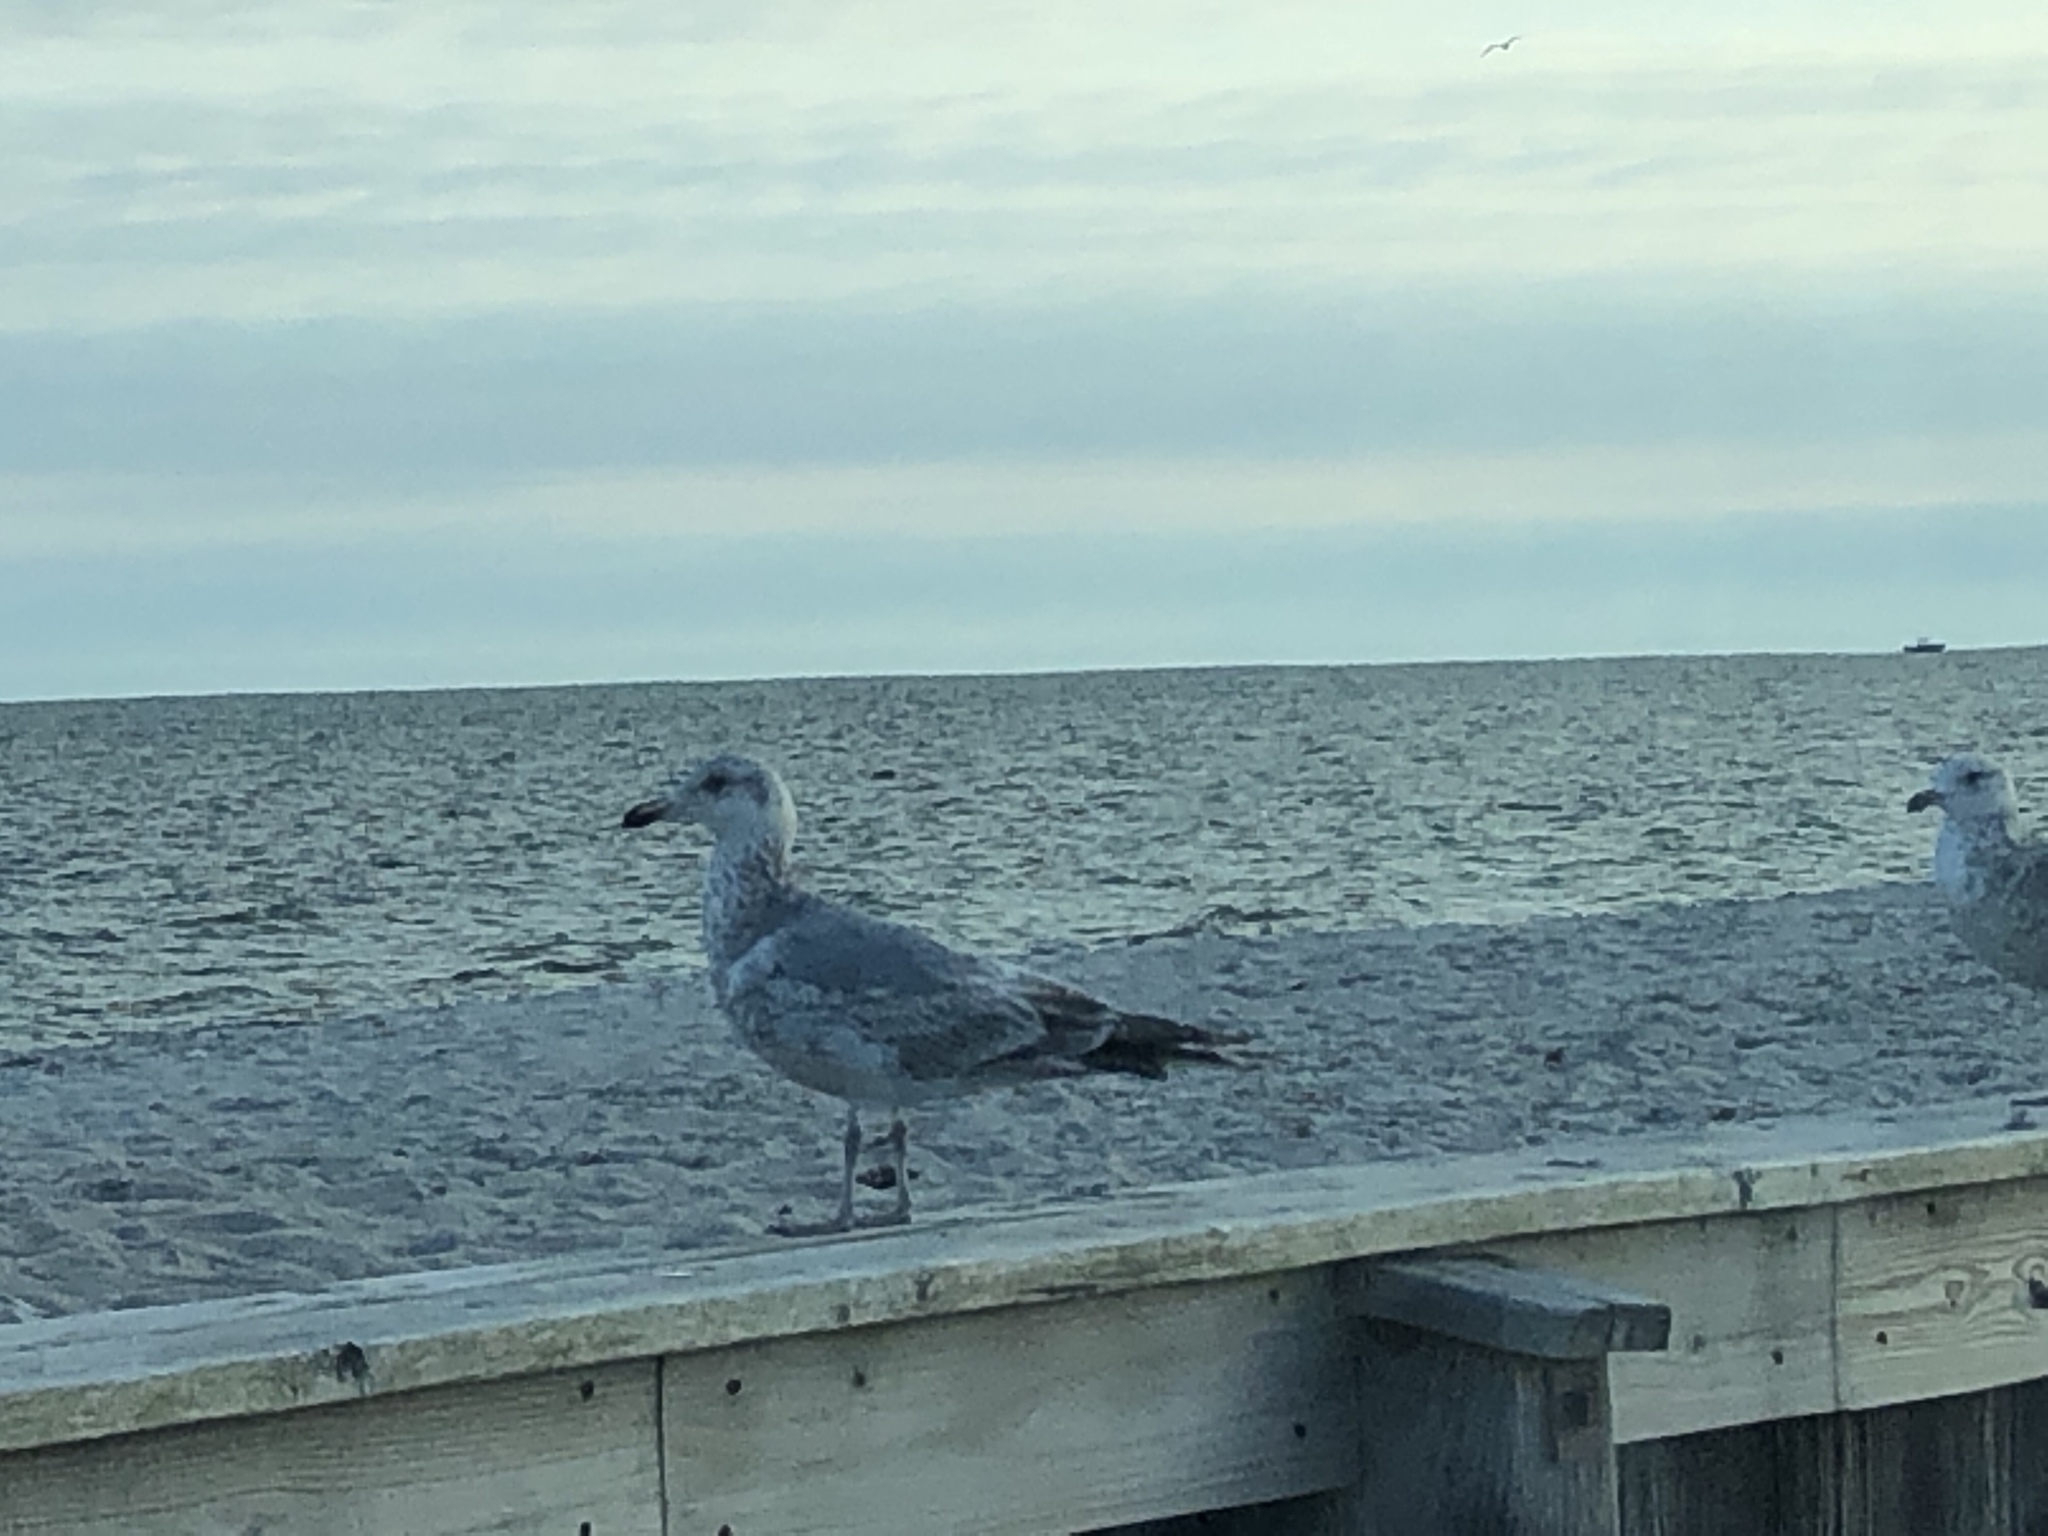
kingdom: Animalia
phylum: Chordata
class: Aves
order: Charadriiformes
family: Laridae
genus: Larus
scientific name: Larus delawarensis
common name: Ring-billed gull
